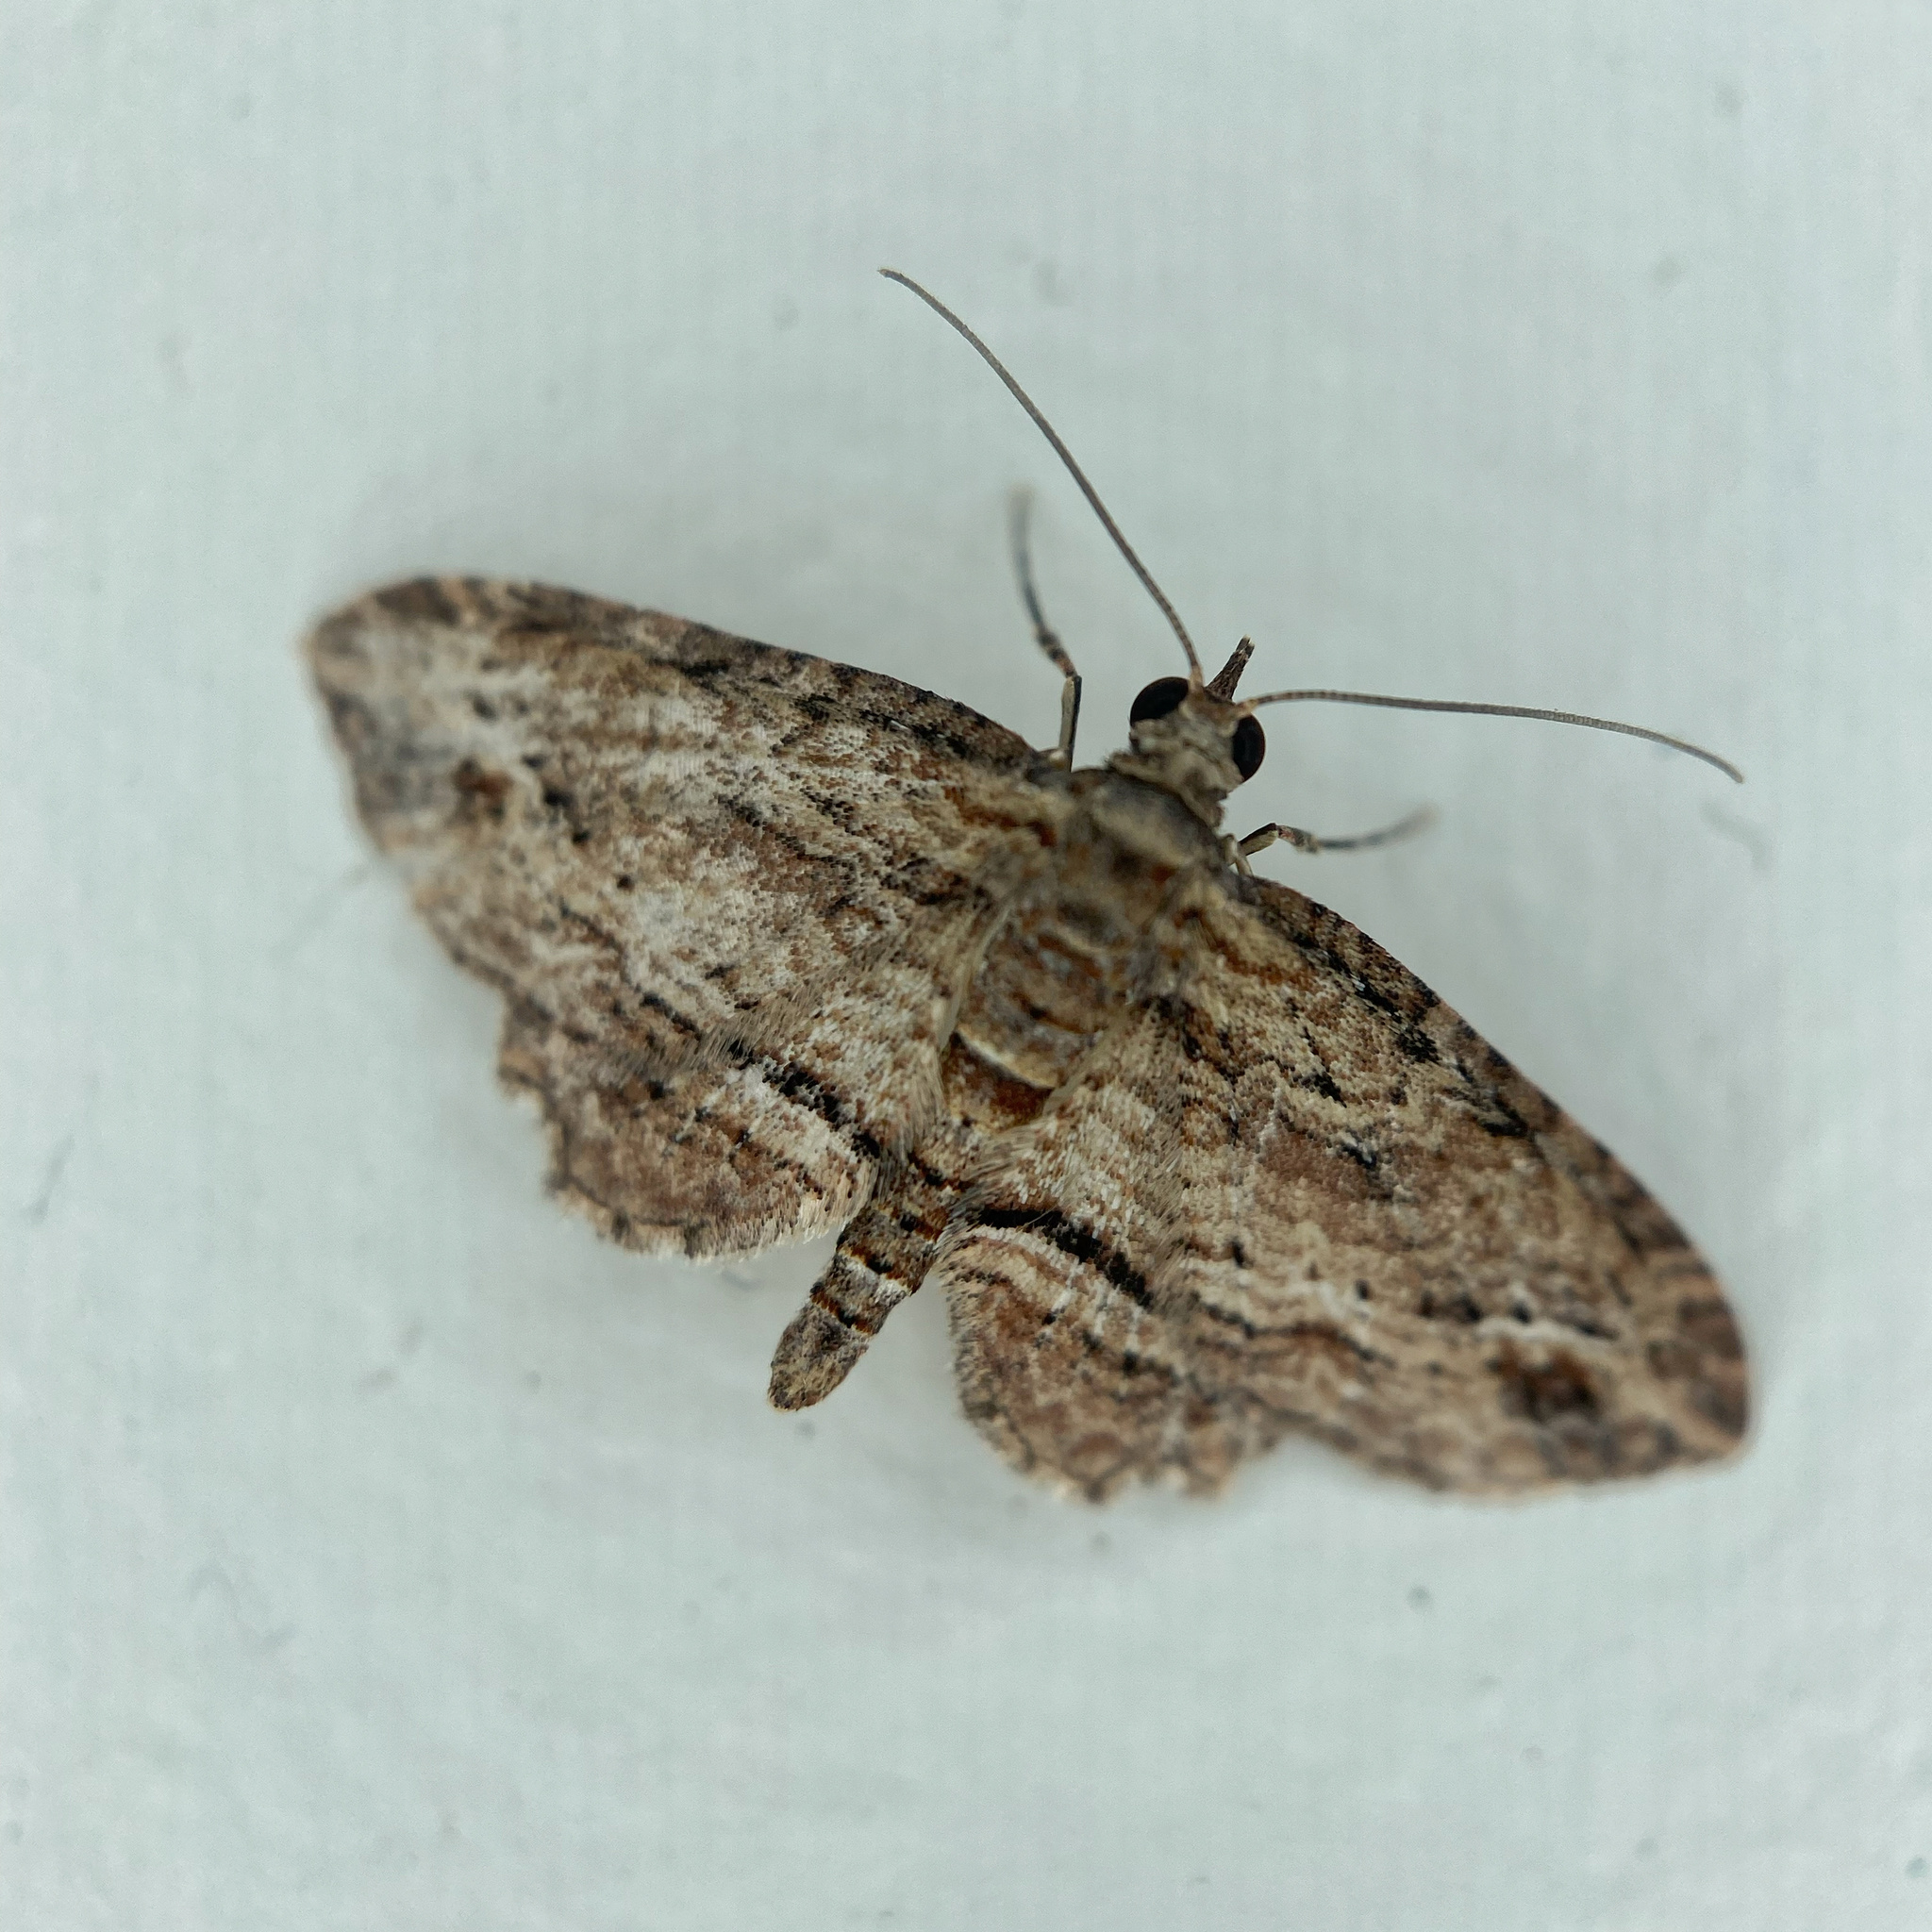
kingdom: Animalia
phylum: Arthropoda
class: Insecta
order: Lepidoptera
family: Geometridae
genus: Chloroclystis
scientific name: Chloroclystis filata
